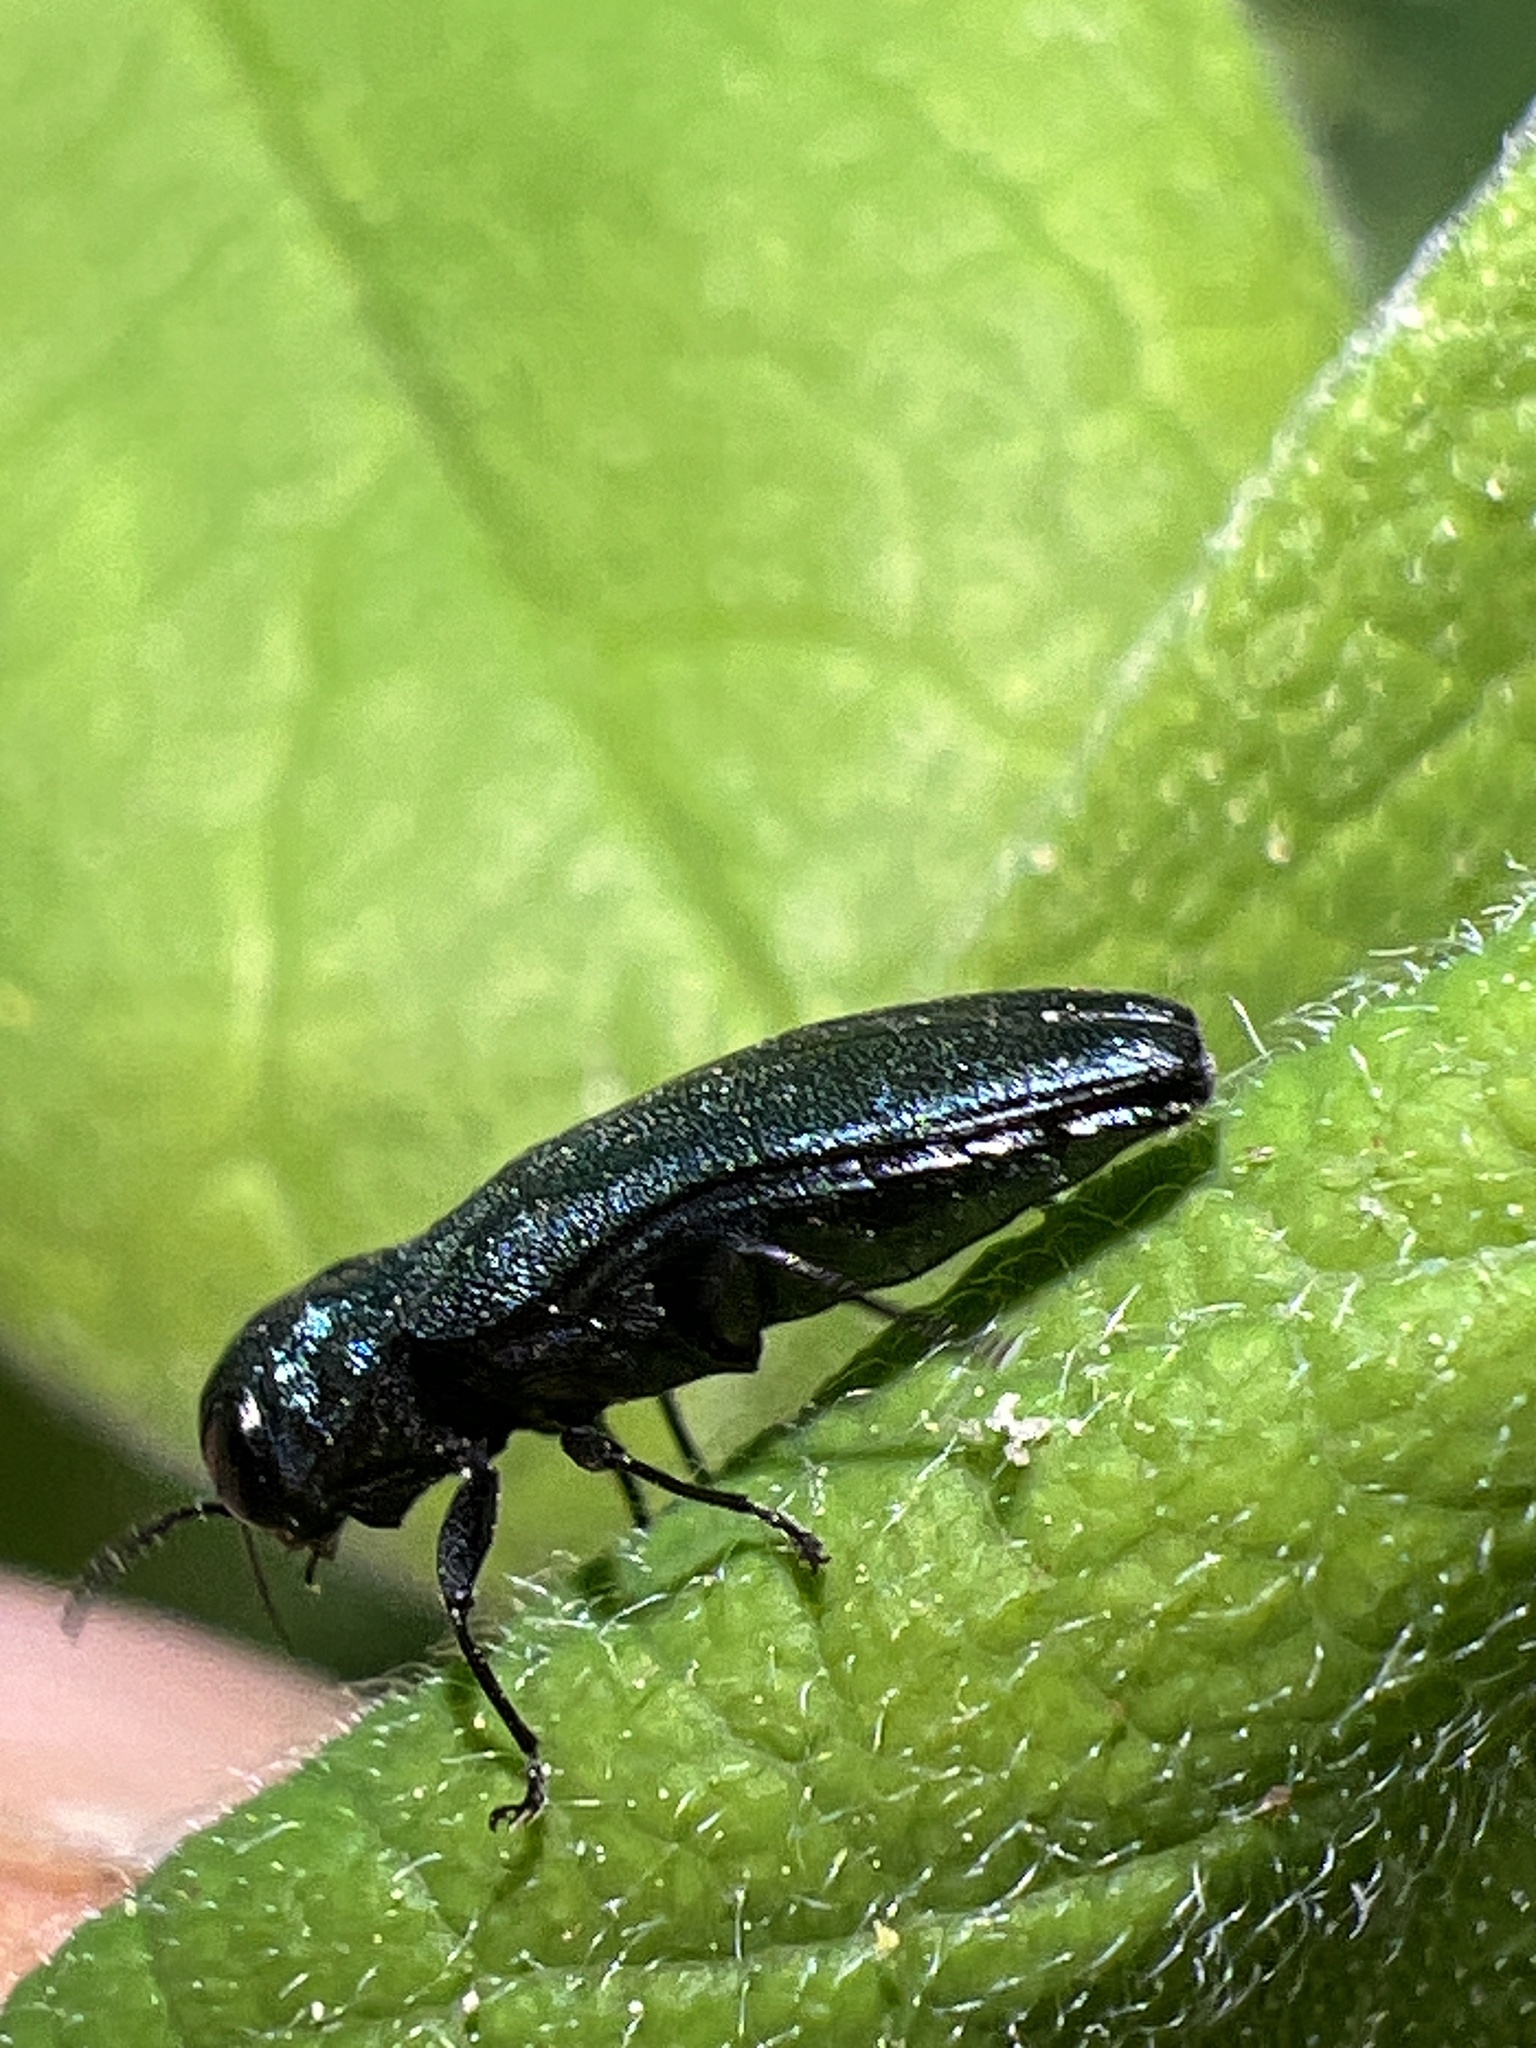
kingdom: Animalia
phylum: Arthropoda
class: Insecta
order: Coleoptera
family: Buprestidae
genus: Agrilus
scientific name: Agrilus cyanescens
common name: Bluish borer beetle
